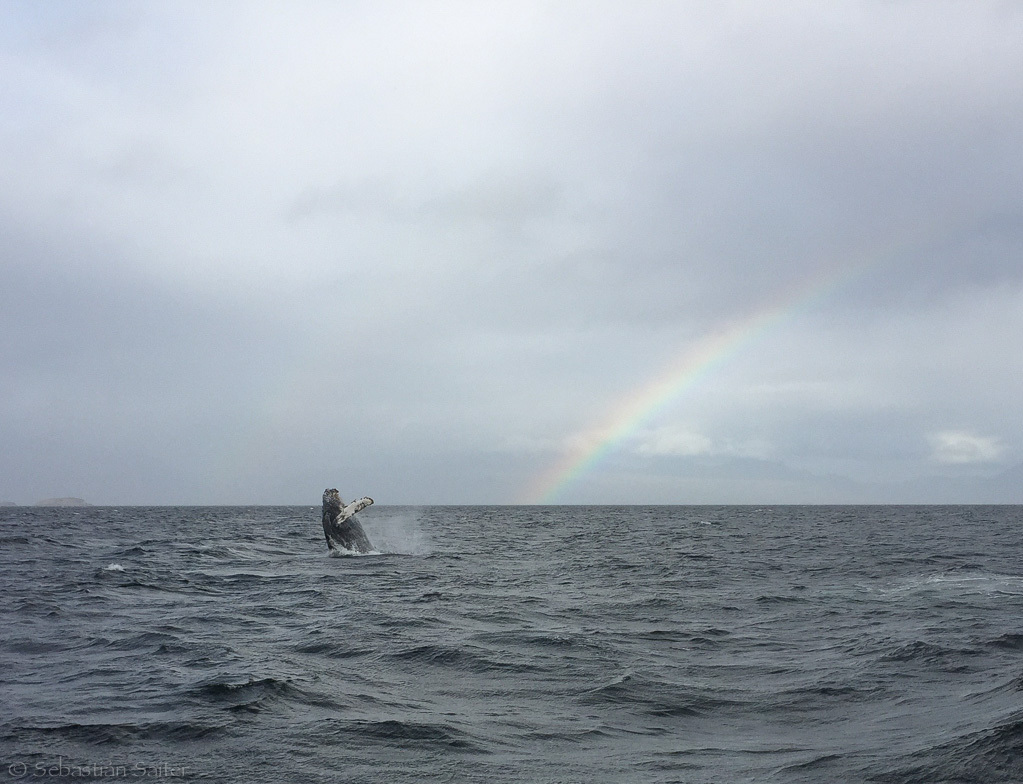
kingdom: Animalia
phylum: Chordata
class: Mammalia
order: Cetacea
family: Balaenopteridae
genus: Megaptera
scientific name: Megaptera novaeangliae
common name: Humpback whale
